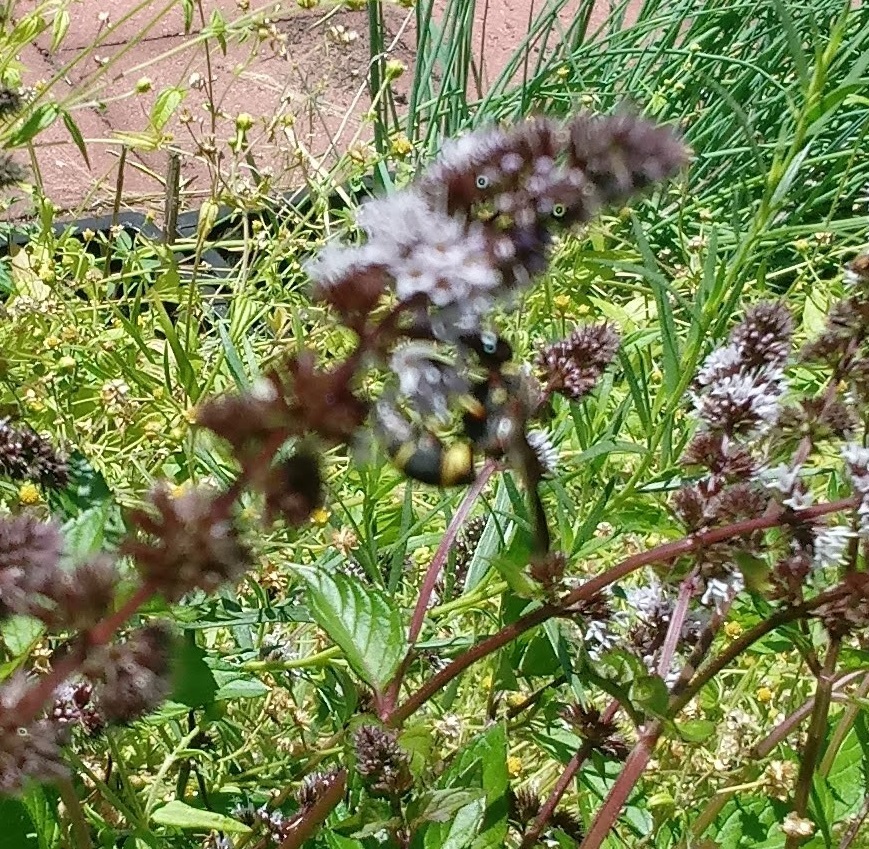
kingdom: Animalia
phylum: Arthropoda
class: Insecta
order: Hymenoptera
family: Eumenidae
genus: Euodynerus
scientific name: Euodynerus hidalgo
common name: Wasp
